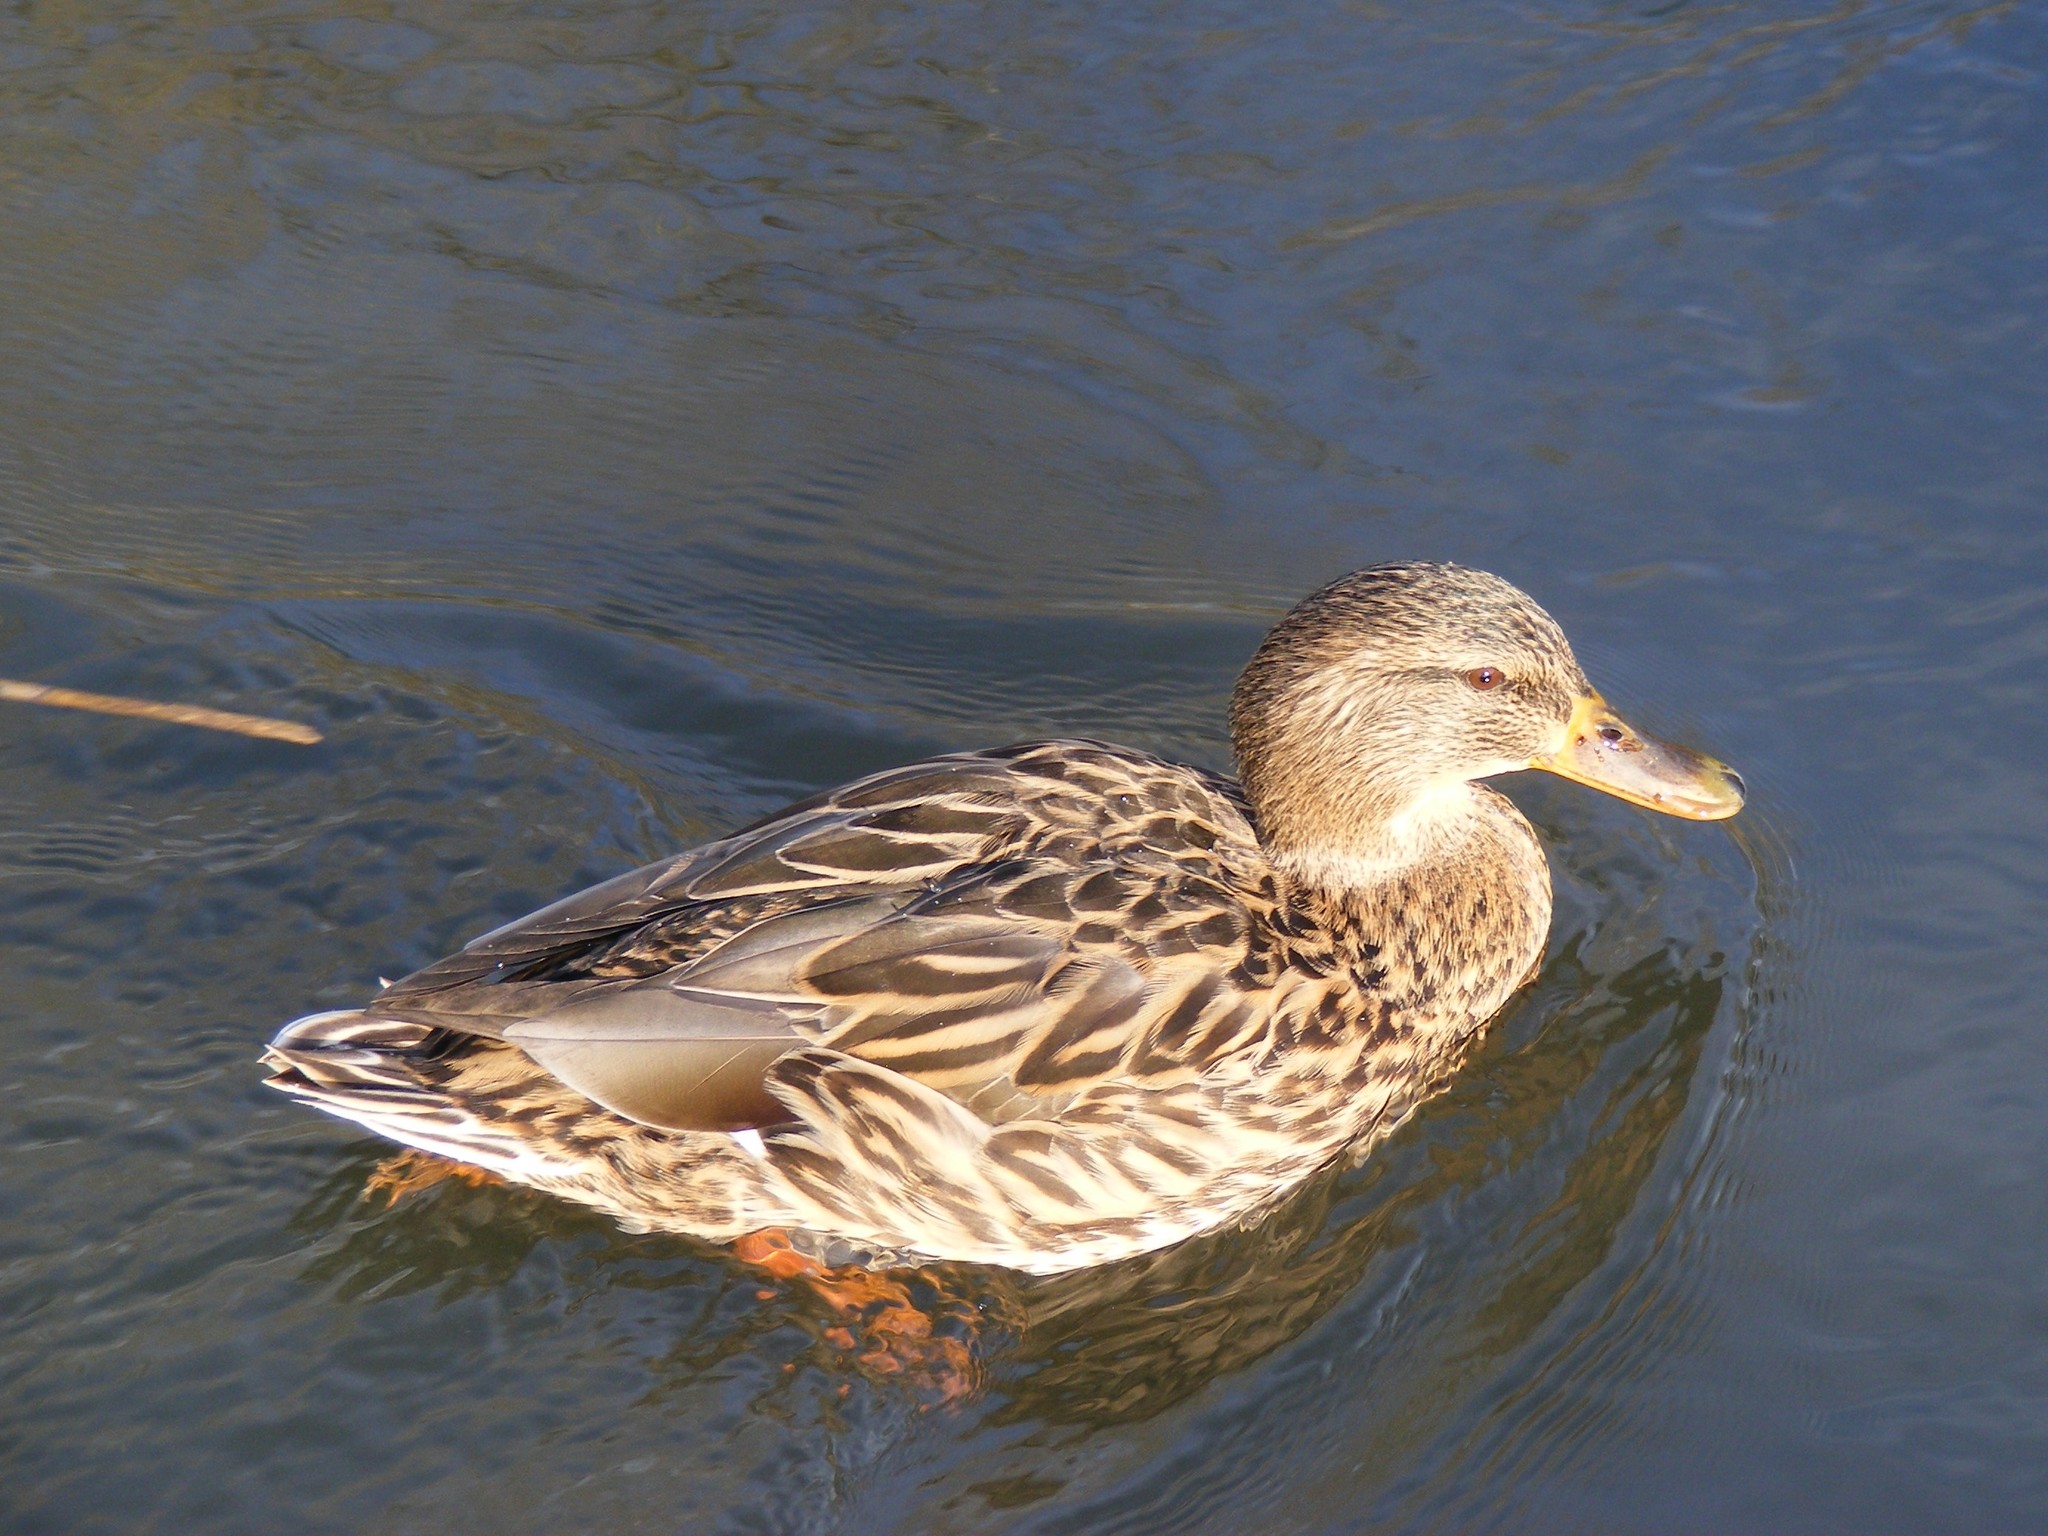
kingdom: Animalia
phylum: Chordata
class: Aves
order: Anseriformes
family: Anatidae
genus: Anas
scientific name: Anas platyrhynchos
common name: Mallard
